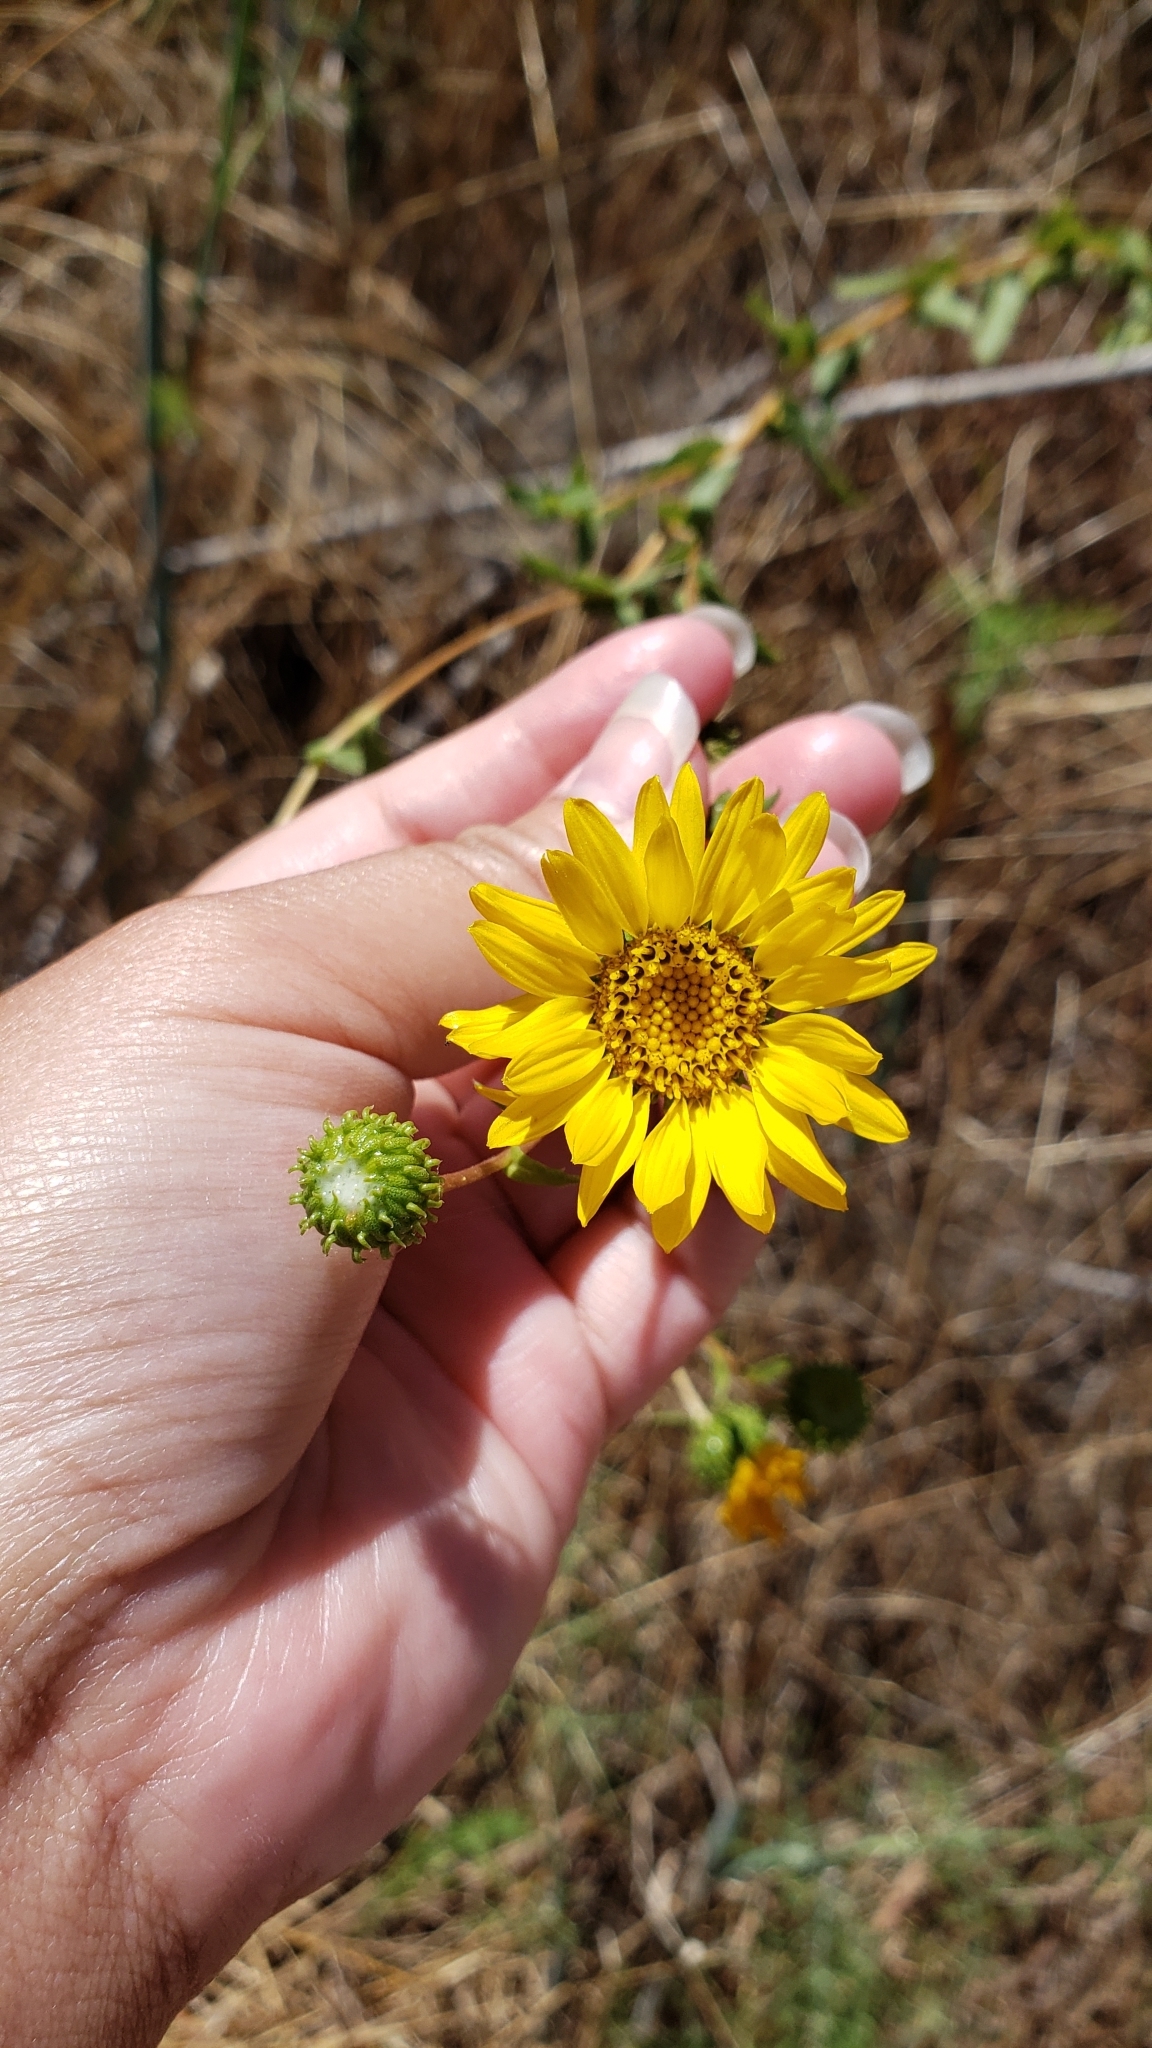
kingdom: Plantae
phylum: Tracheophyta
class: Magnoliopsida
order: Asterales
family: Asteraceae
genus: Grindelia
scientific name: Grindelia hirsutula
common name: Hairy gumweed
